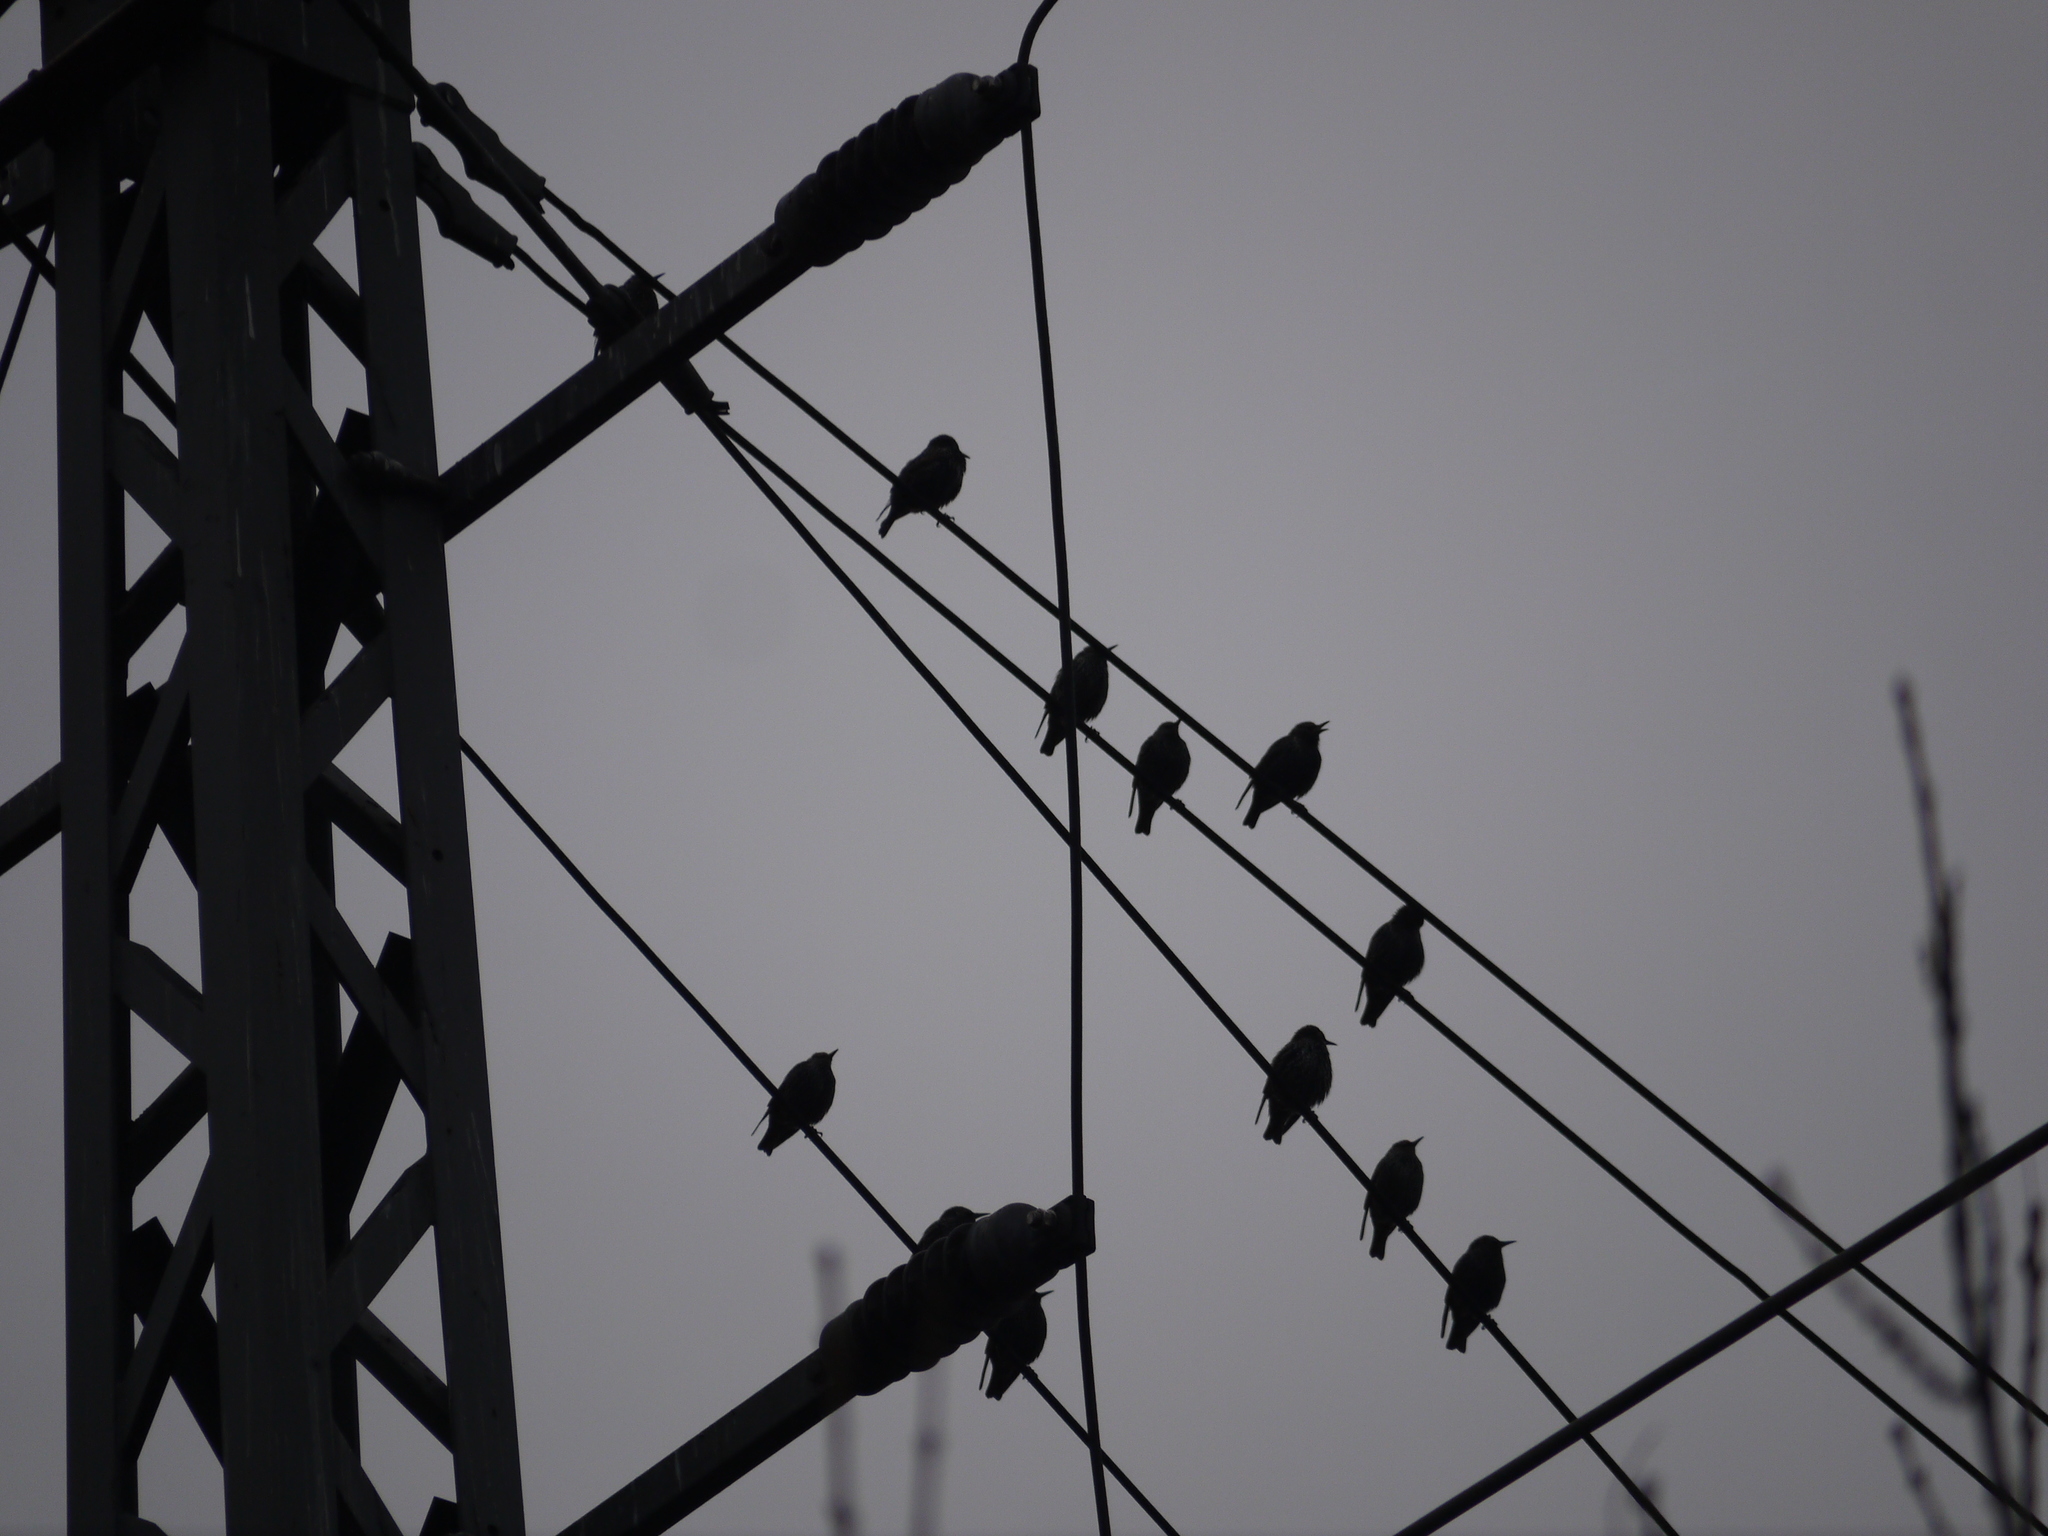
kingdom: Animalia
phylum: Chordata
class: Aves
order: Passeriformes
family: Sturnidae
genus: Sturnus
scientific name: Sturnus vulgaris
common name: Common starling
